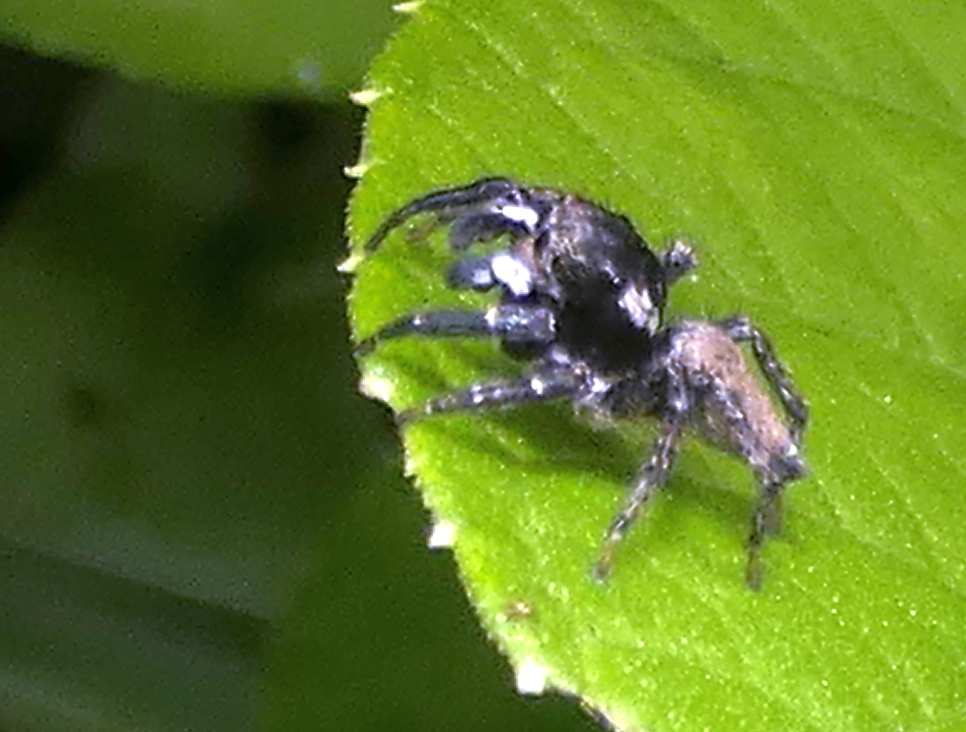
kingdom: Animalia
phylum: Arthropoda
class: Arachnida
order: Araneae
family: Salticidae
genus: Sumampattus
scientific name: Sumampattus quinqueradiatus
